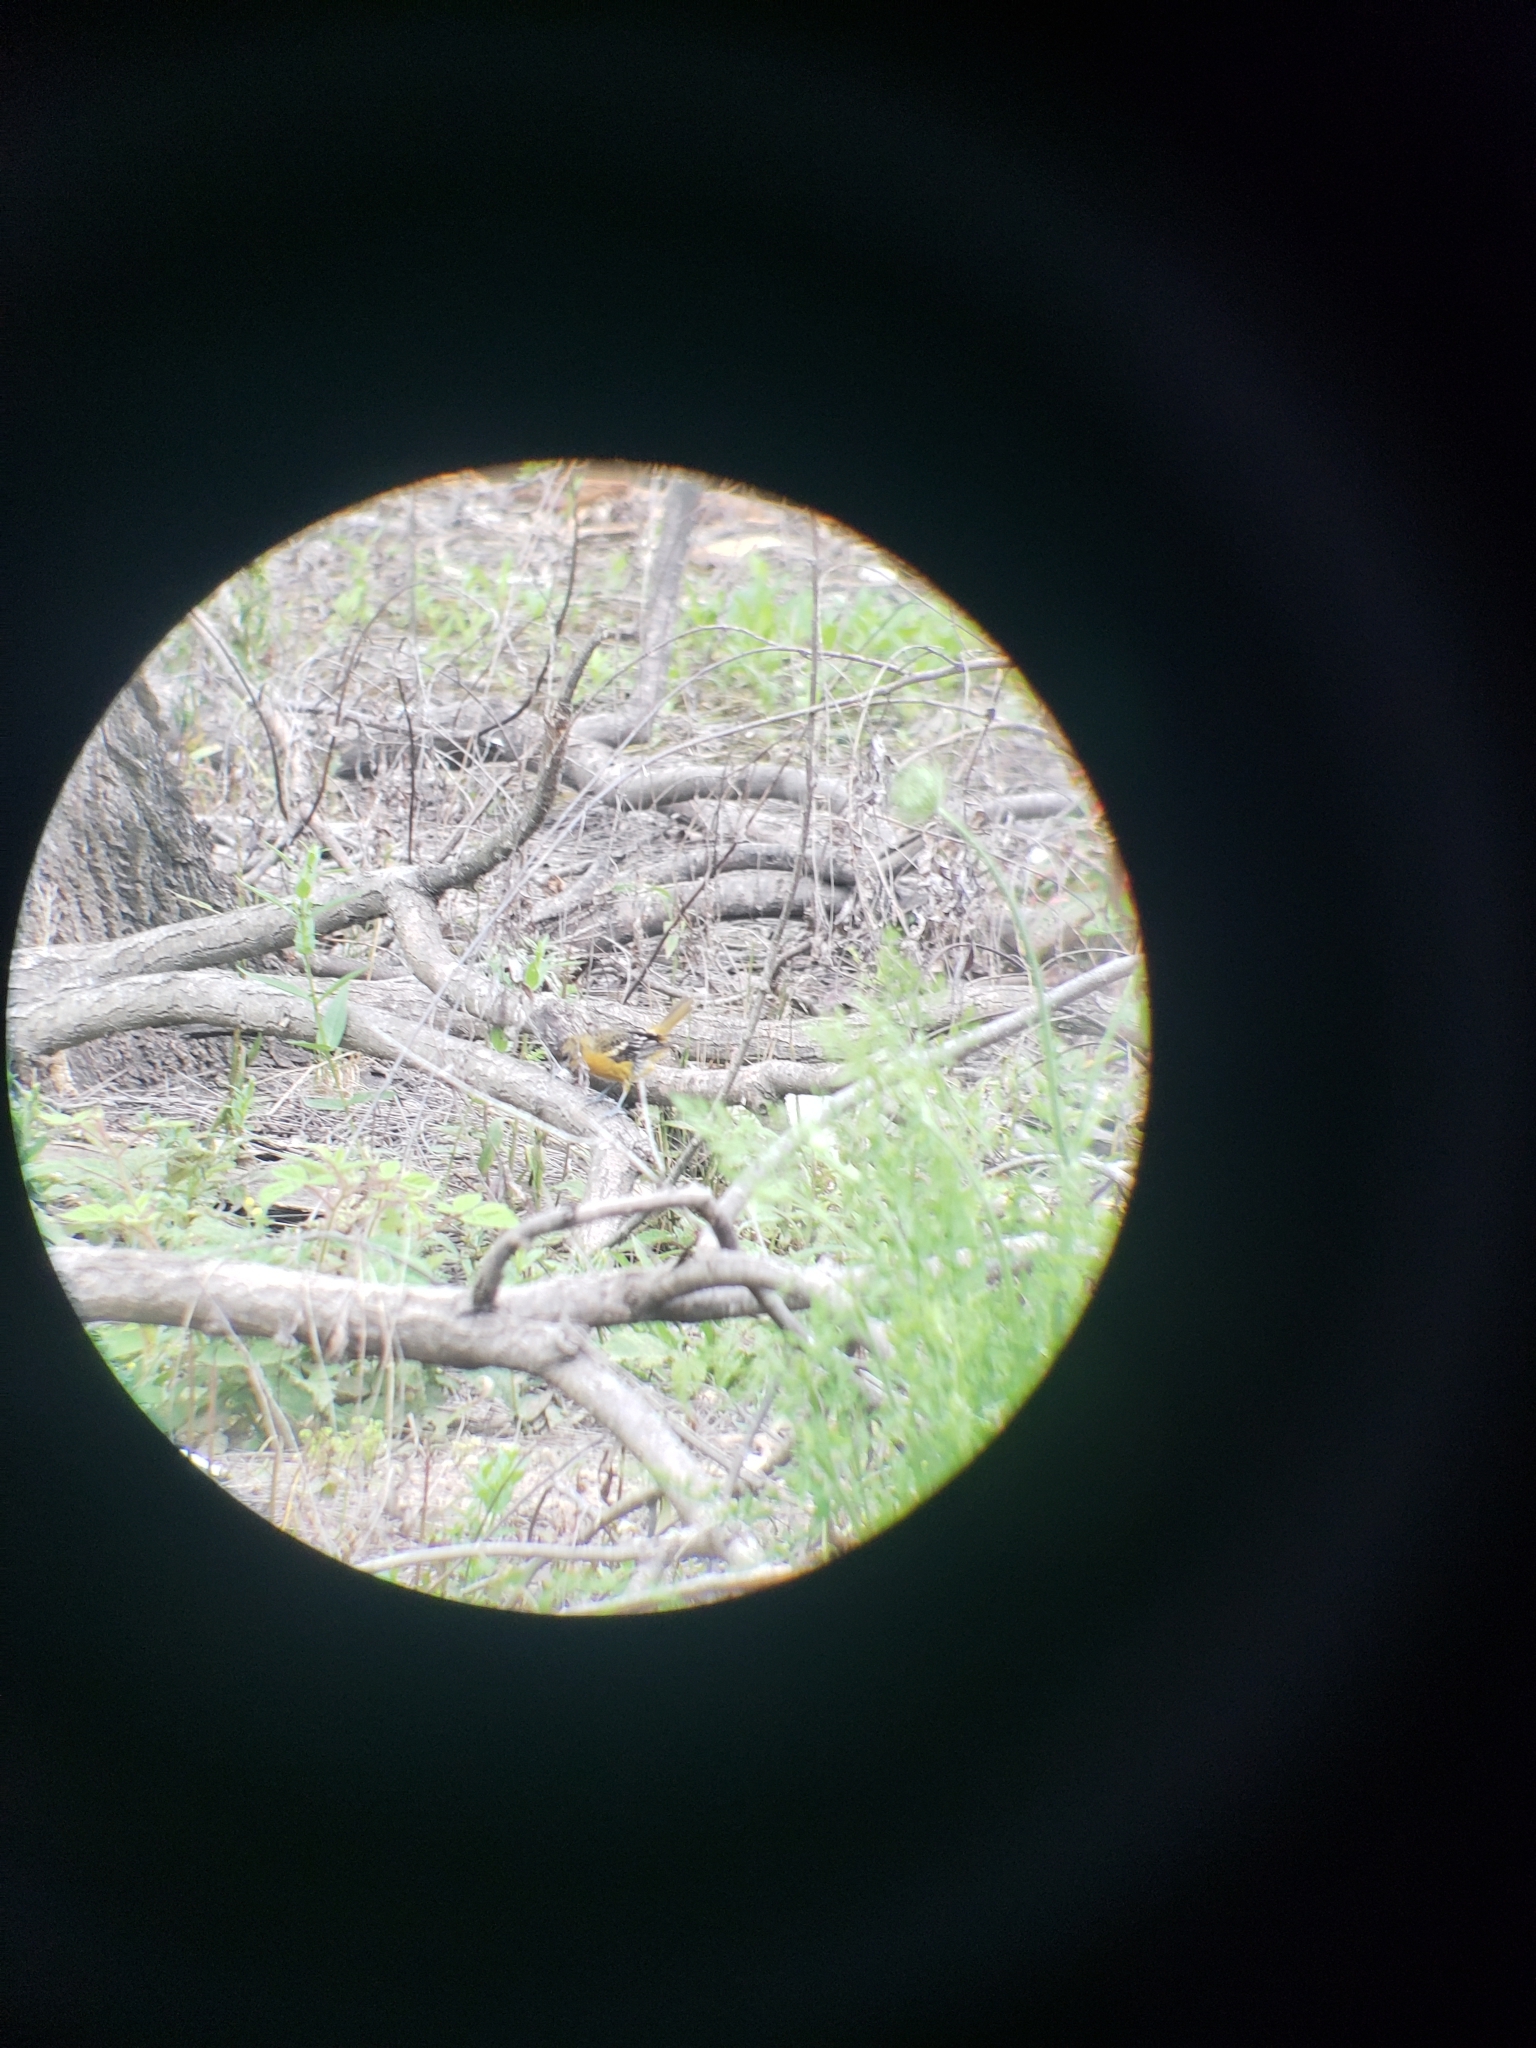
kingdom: Animalia
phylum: Chordata
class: Aves
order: Passeriformes
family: Icteridae
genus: Icterus
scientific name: Icterus galbula
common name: Baltimore oriole
